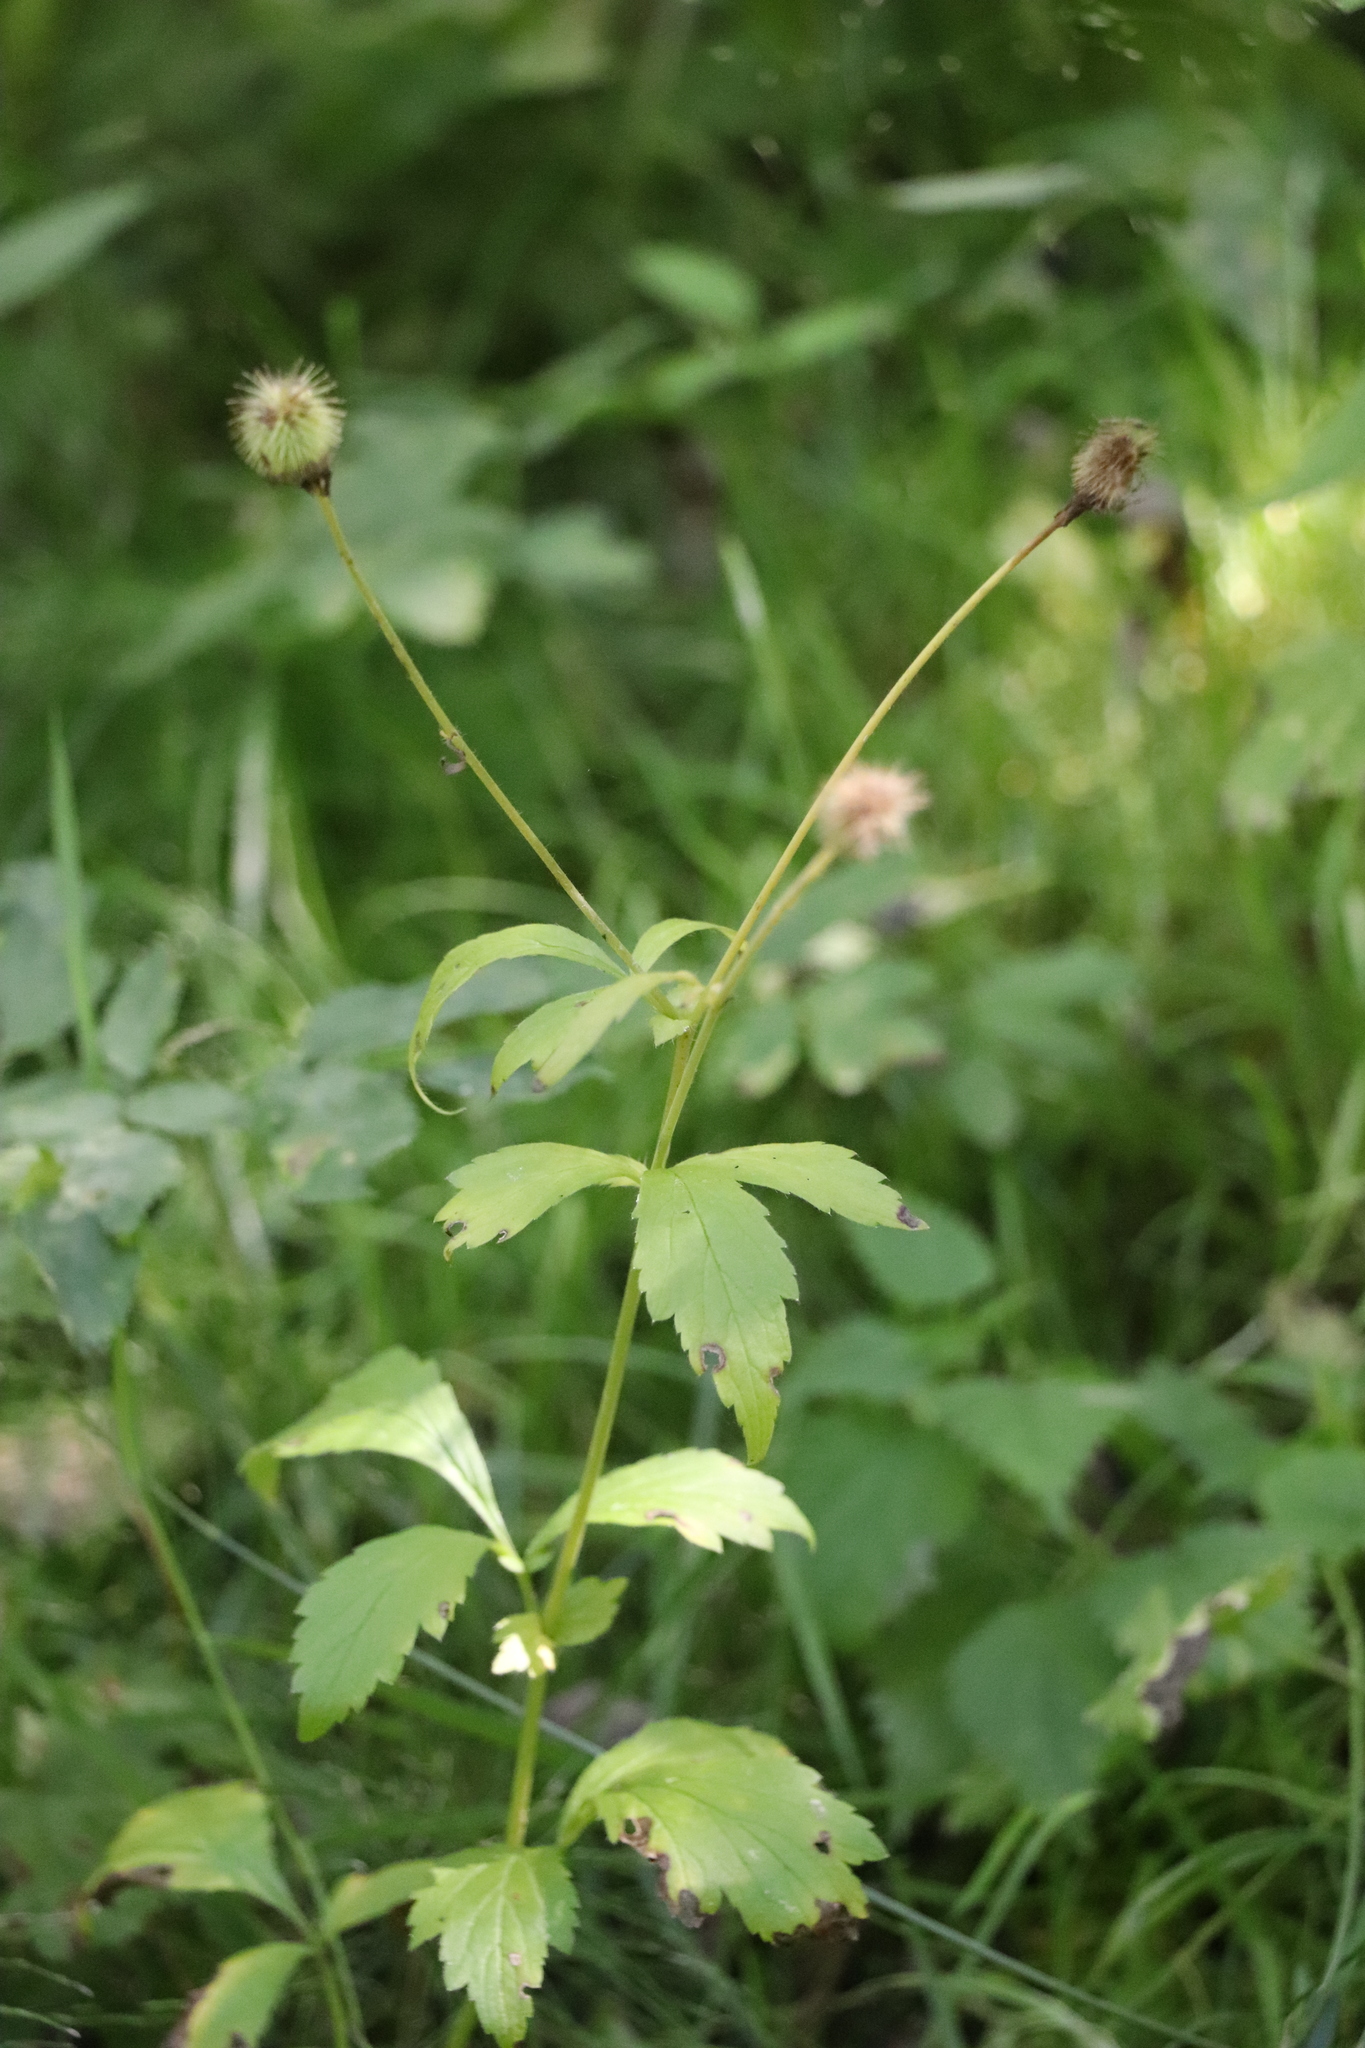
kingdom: Plantae
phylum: Tracheophyta
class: Magnoliopsida
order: Rosales
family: Rosaceae
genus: Geum
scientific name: Geum aleppicum
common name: Yellow avens
